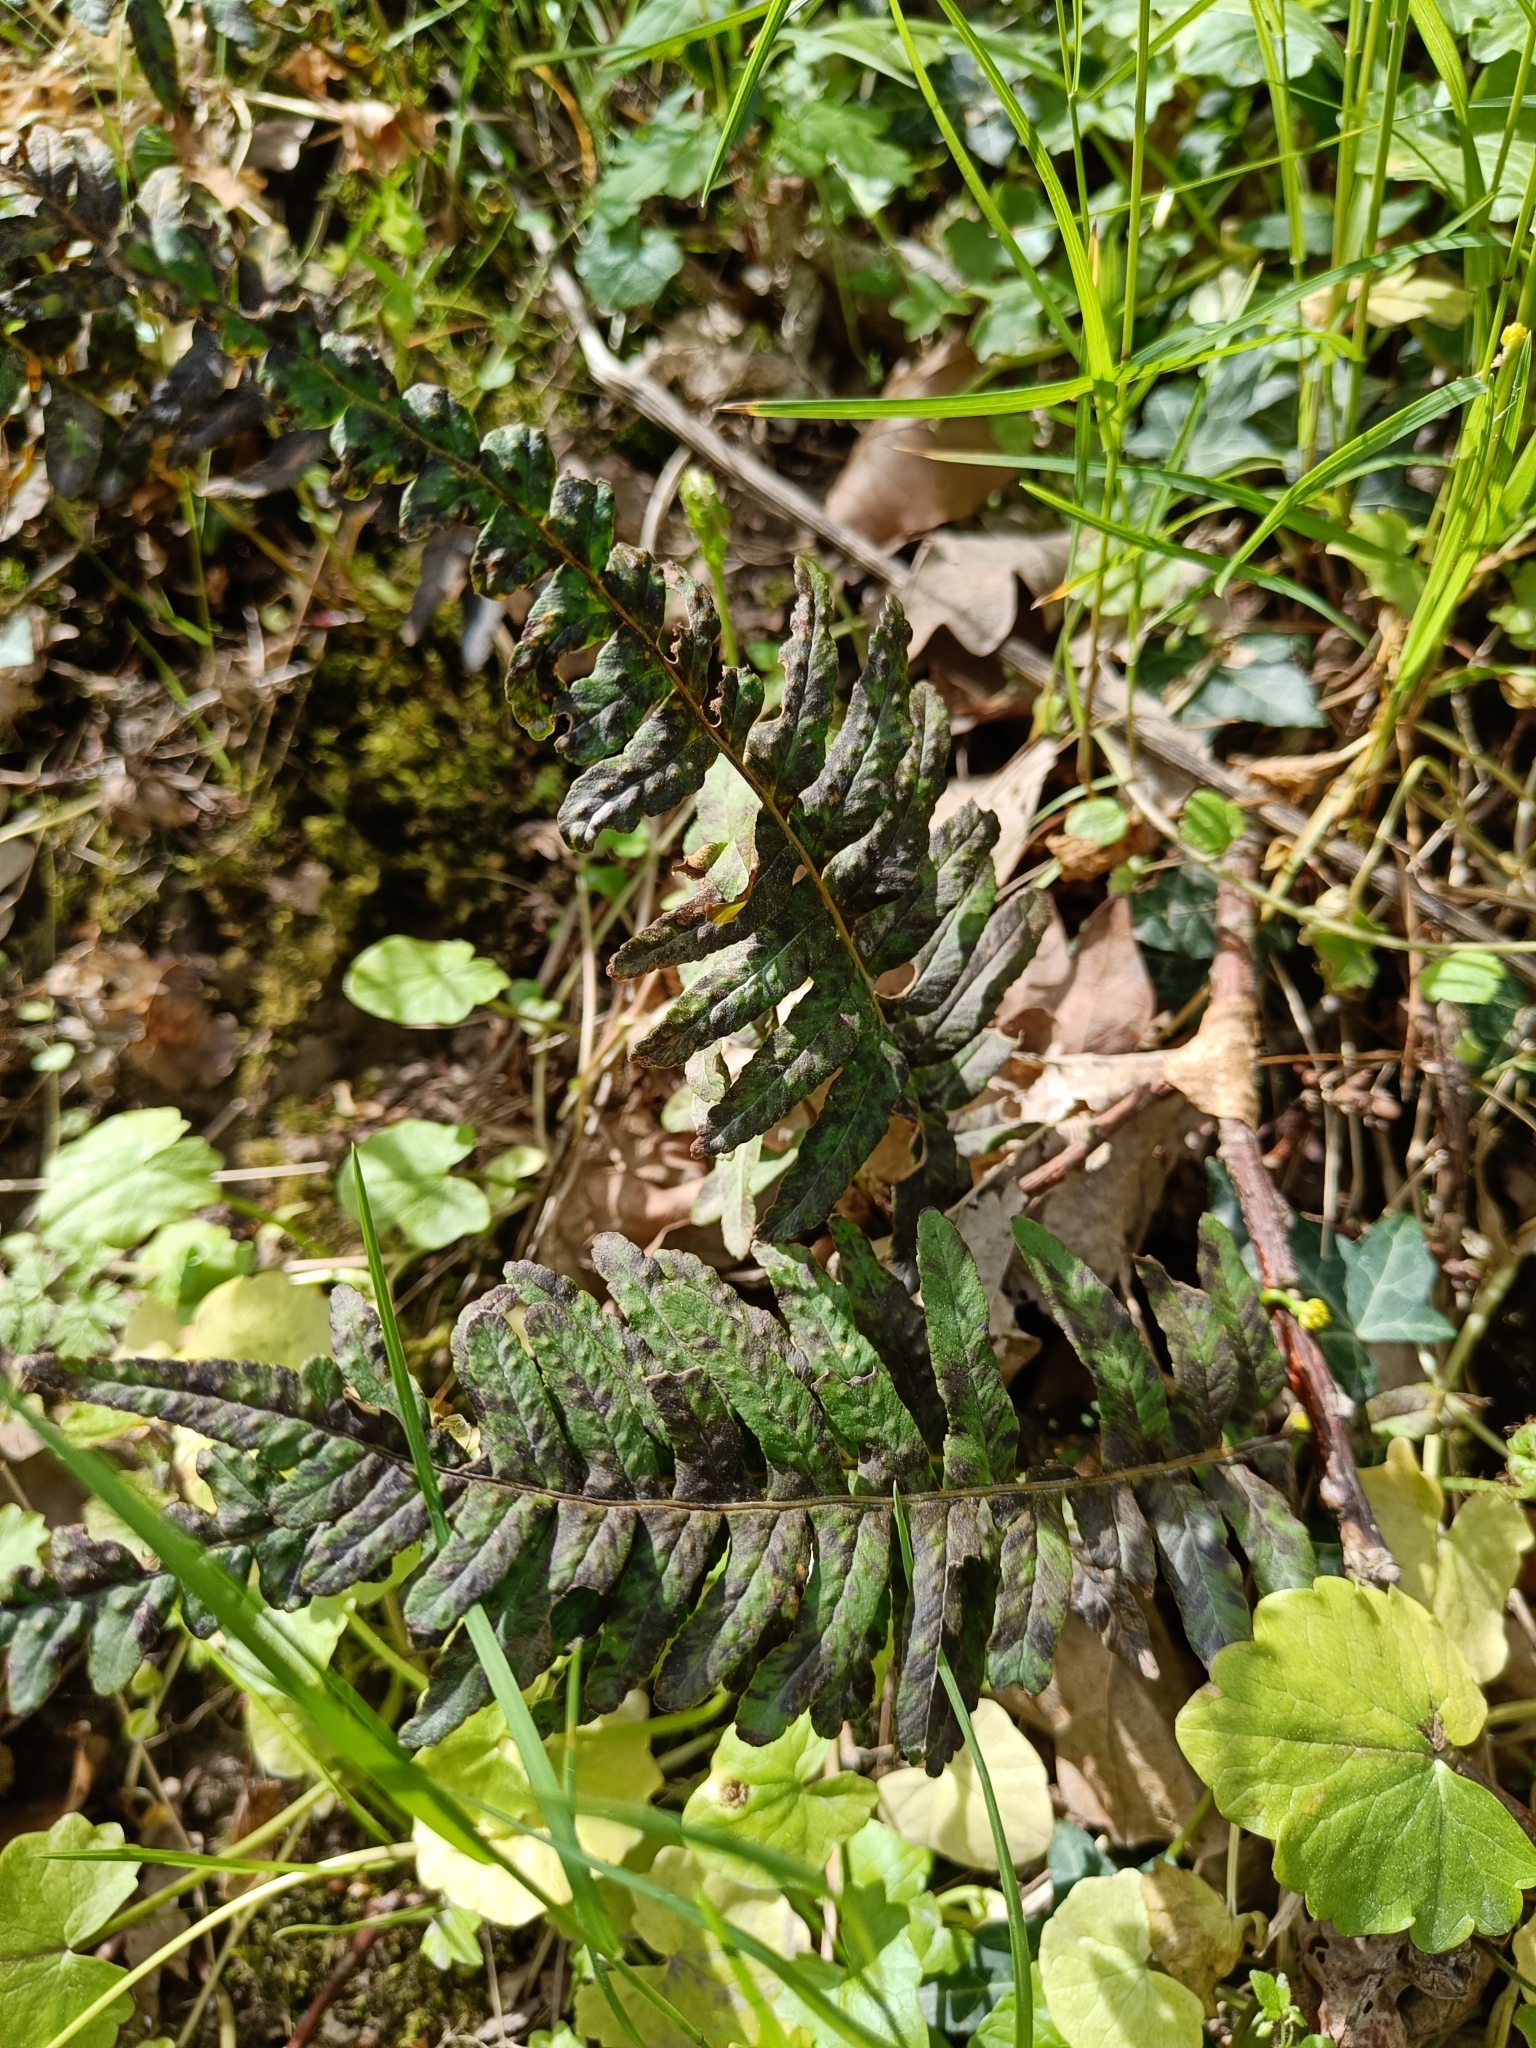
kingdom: Plantae
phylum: Tracheophyta
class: Polypodiopsida
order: Polypodiales
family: Polypodiaceae
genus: Polypodium
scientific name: Polypodium vulgare
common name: Common polypody
